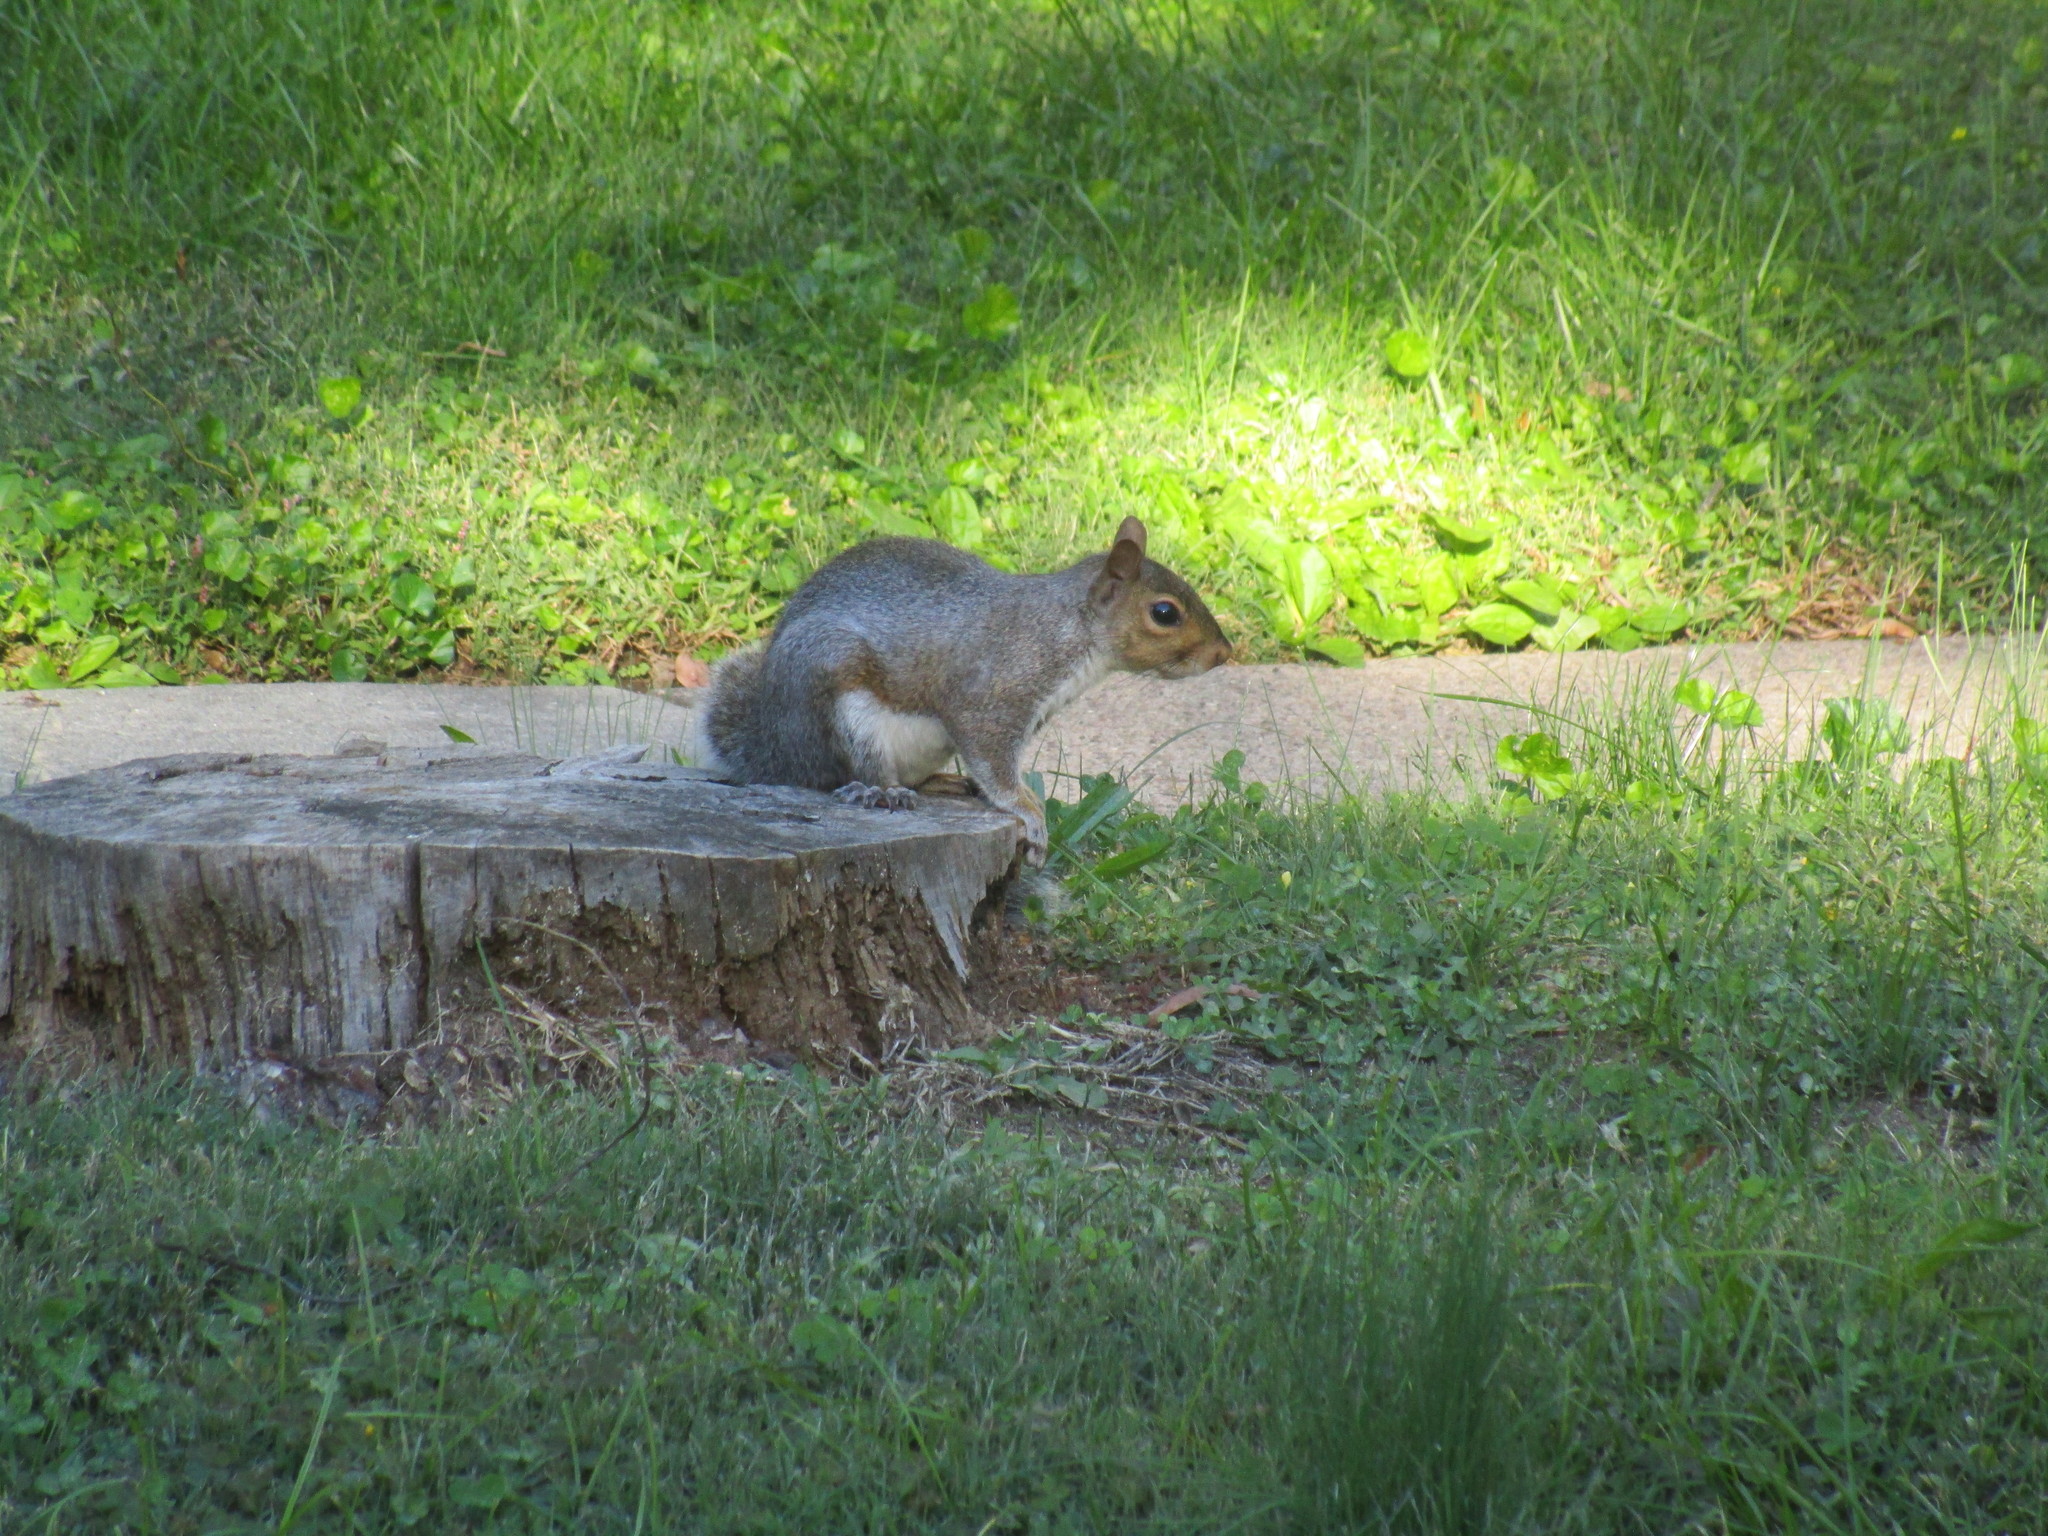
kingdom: Animalia
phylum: Chordata
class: Mammalia
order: Rodentia
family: Sciuridae
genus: Sciurus
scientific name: Sciurus carolinensis
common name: Eastern gray squirrel
